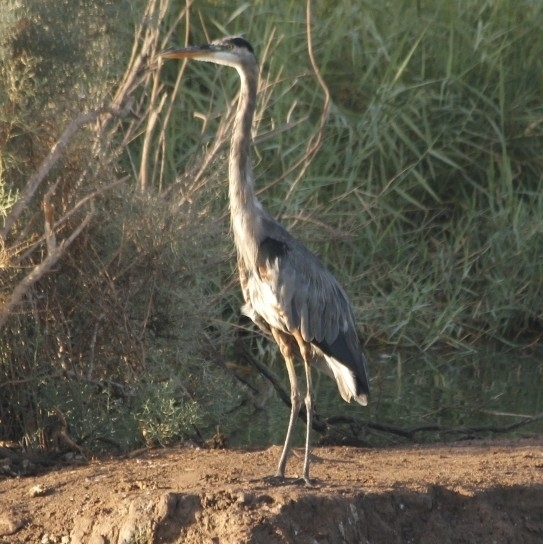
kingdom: Animalia
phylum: Chordata
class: Aves
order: Pelecaniformes
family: Ardeidae
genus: Ardea
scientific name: Ardea herodias
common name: Great blue heron
